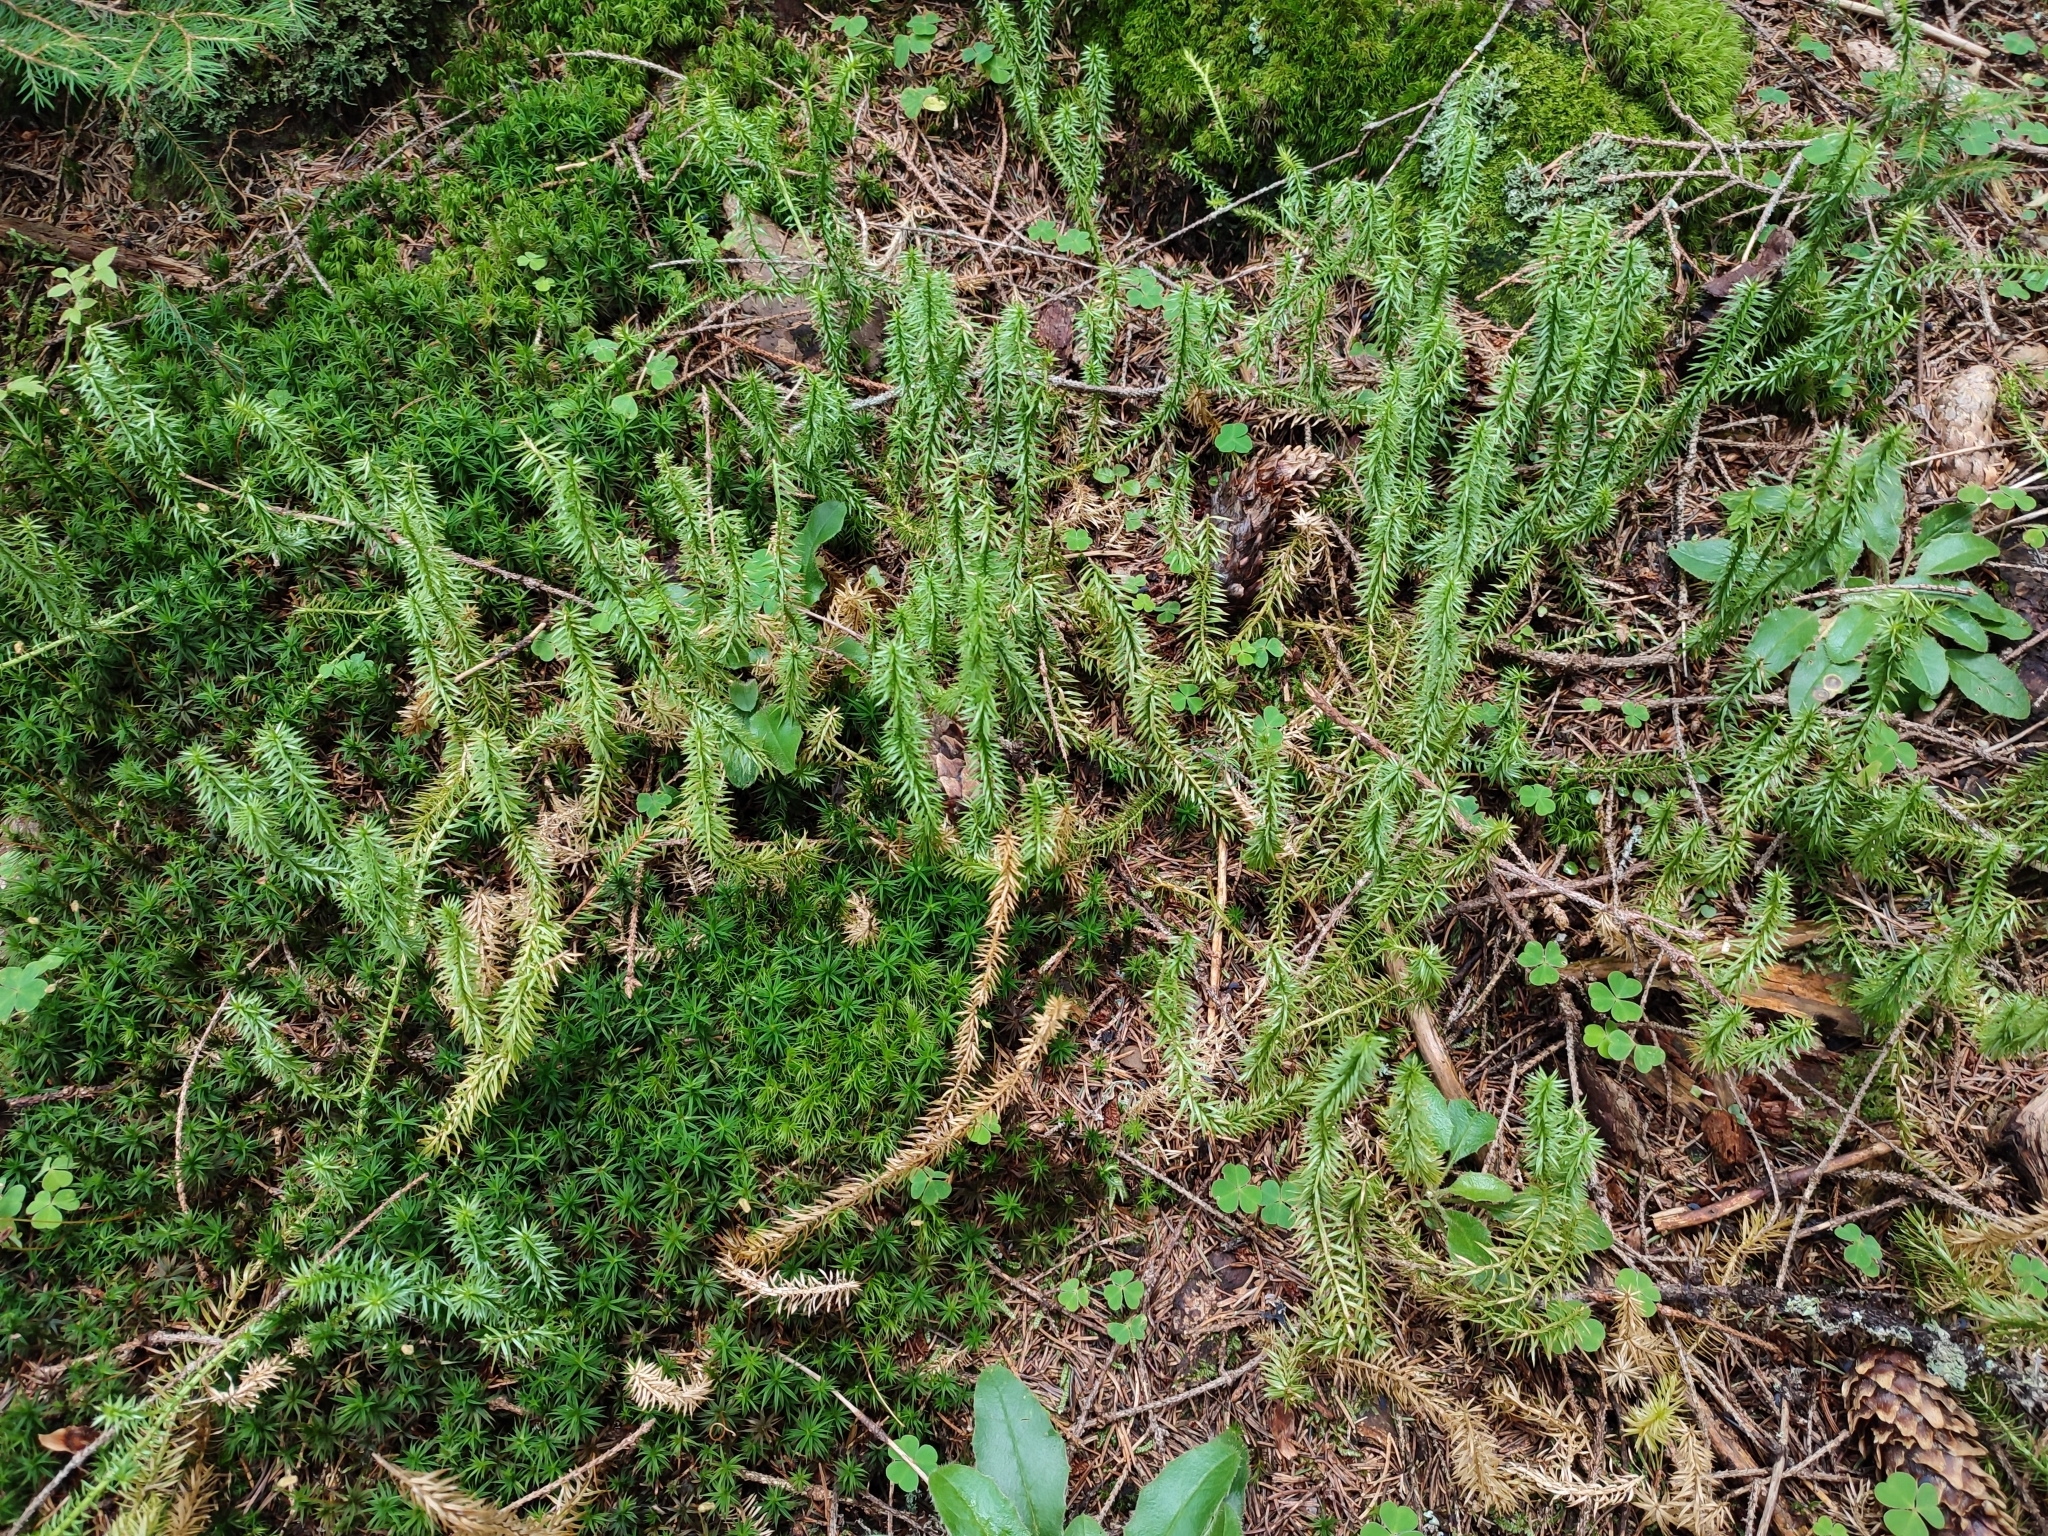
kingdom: Plantae
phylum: Tracheophyta
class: Lycopodiopsida
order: Lycopodiales
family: Lycopodiaceae
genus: Spinulum
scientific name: Spinulum annotinum
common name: Interrupted club-moss
